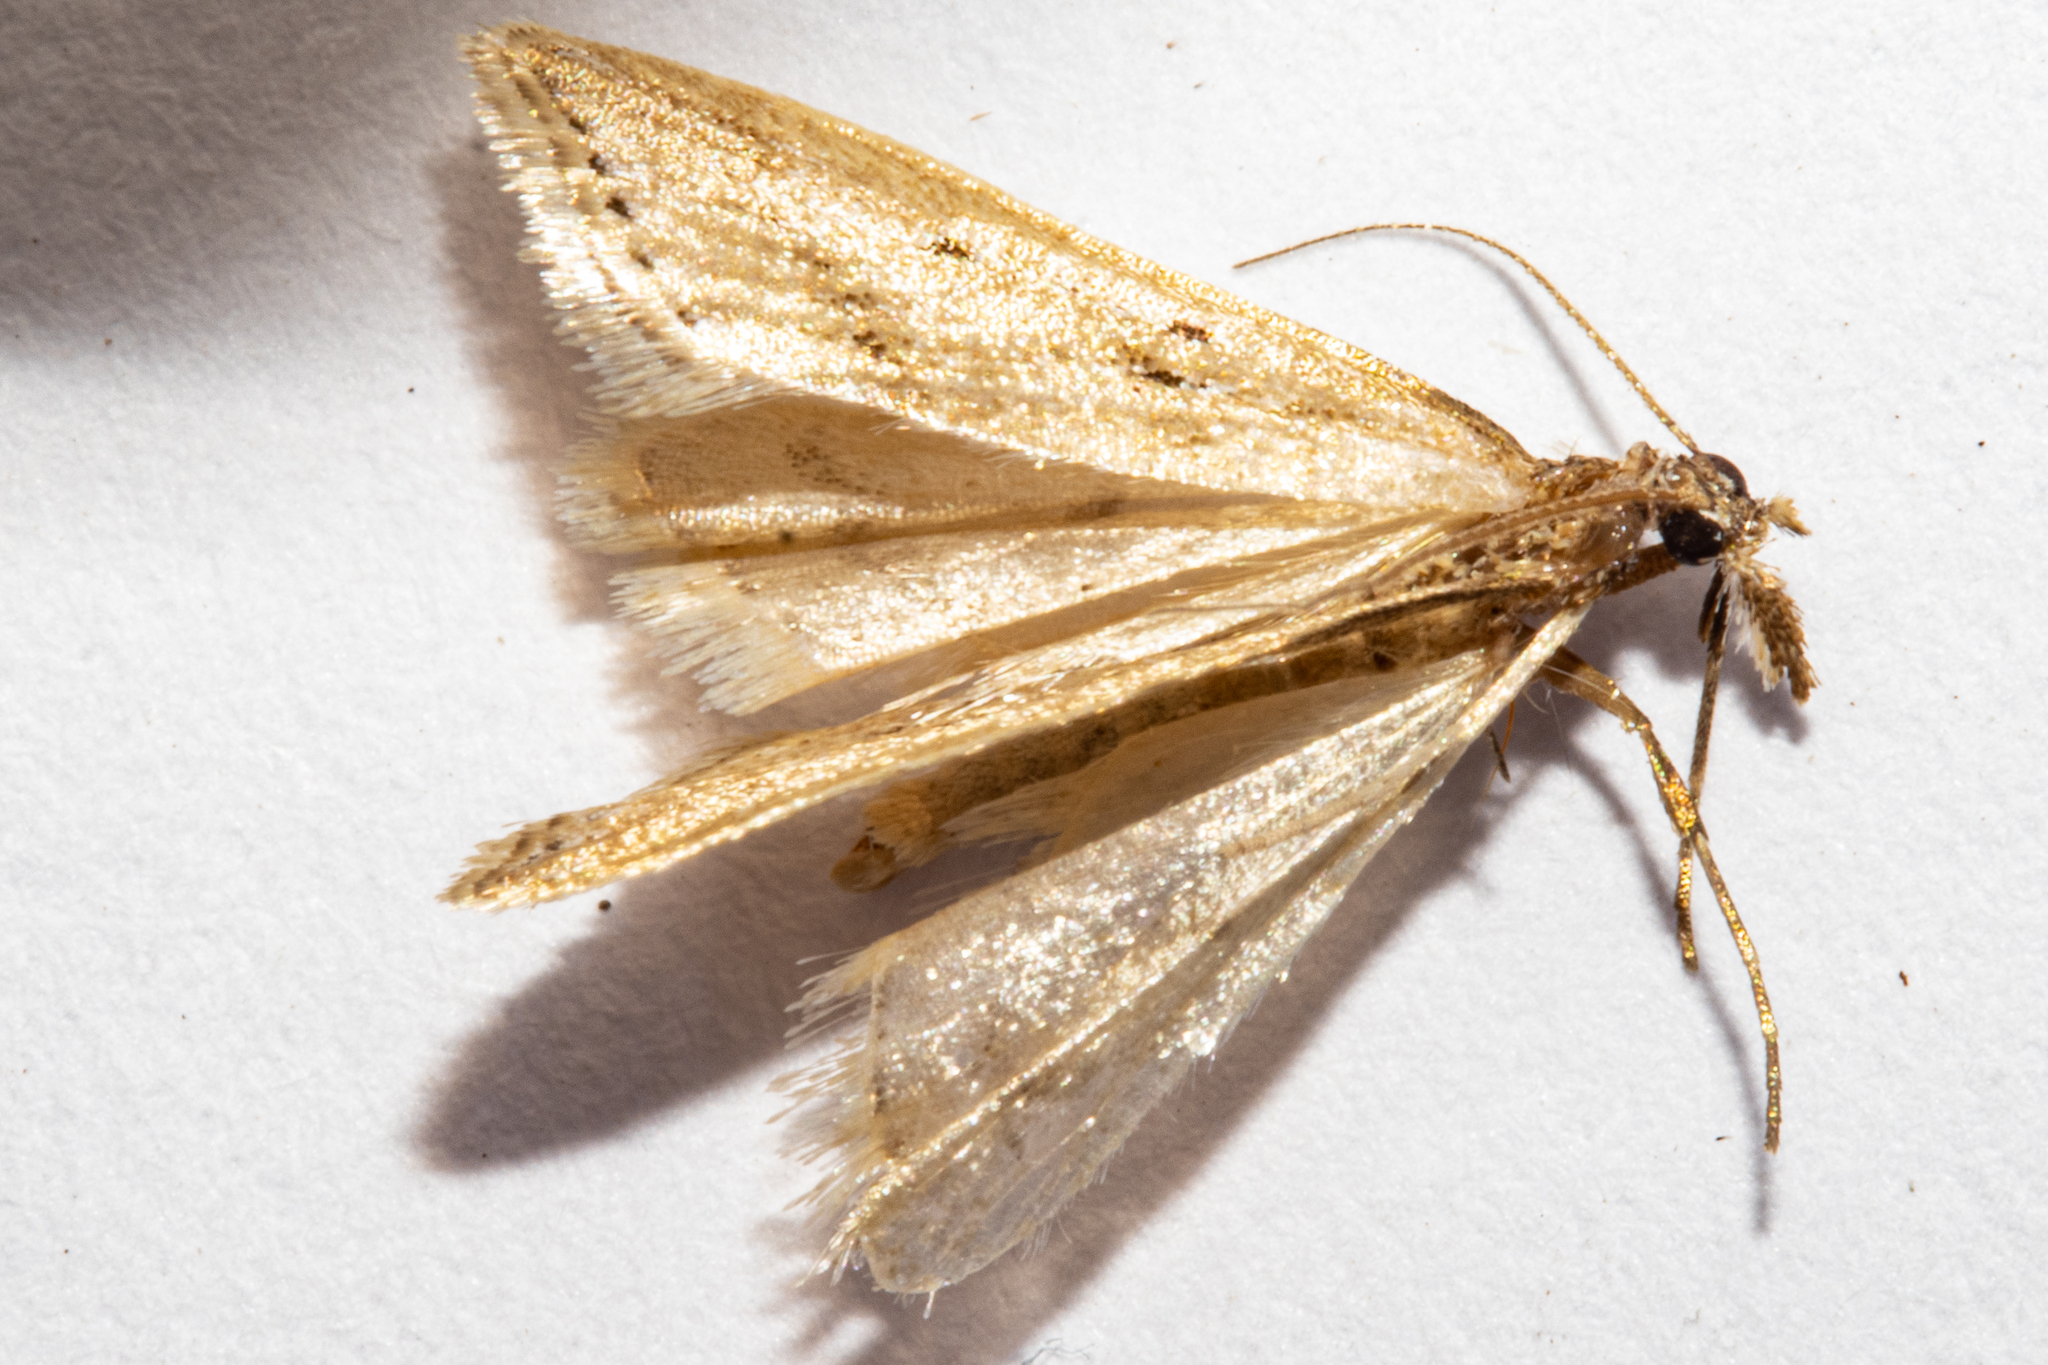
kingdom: Animalia
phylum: Arthropoda
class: Insecta
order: Lepidoptera
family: Crambidae
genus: Antiscopa
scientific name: Antiscopa elaphra
